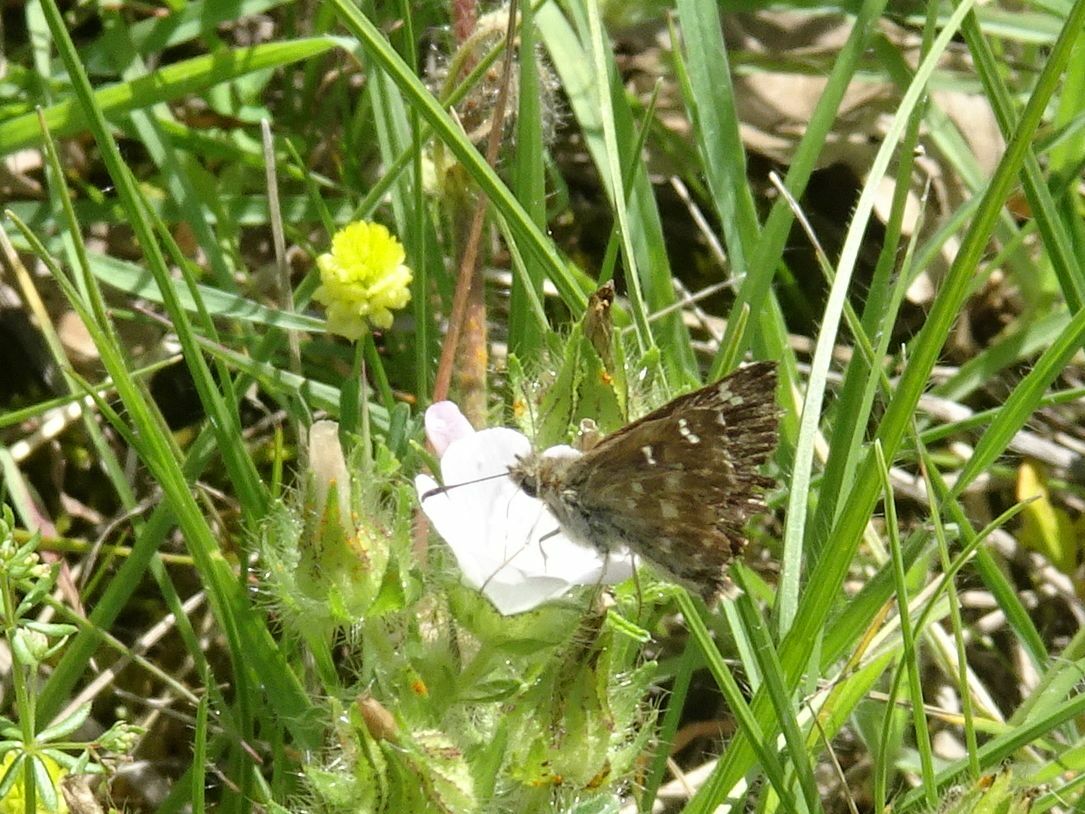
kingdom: Animalia
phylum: Arthropoda
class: Insecta
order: Lepidoptera
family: Hesperiidae
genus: Carcharodus
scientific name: Carcharodus alceae
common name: Mallow skipper
